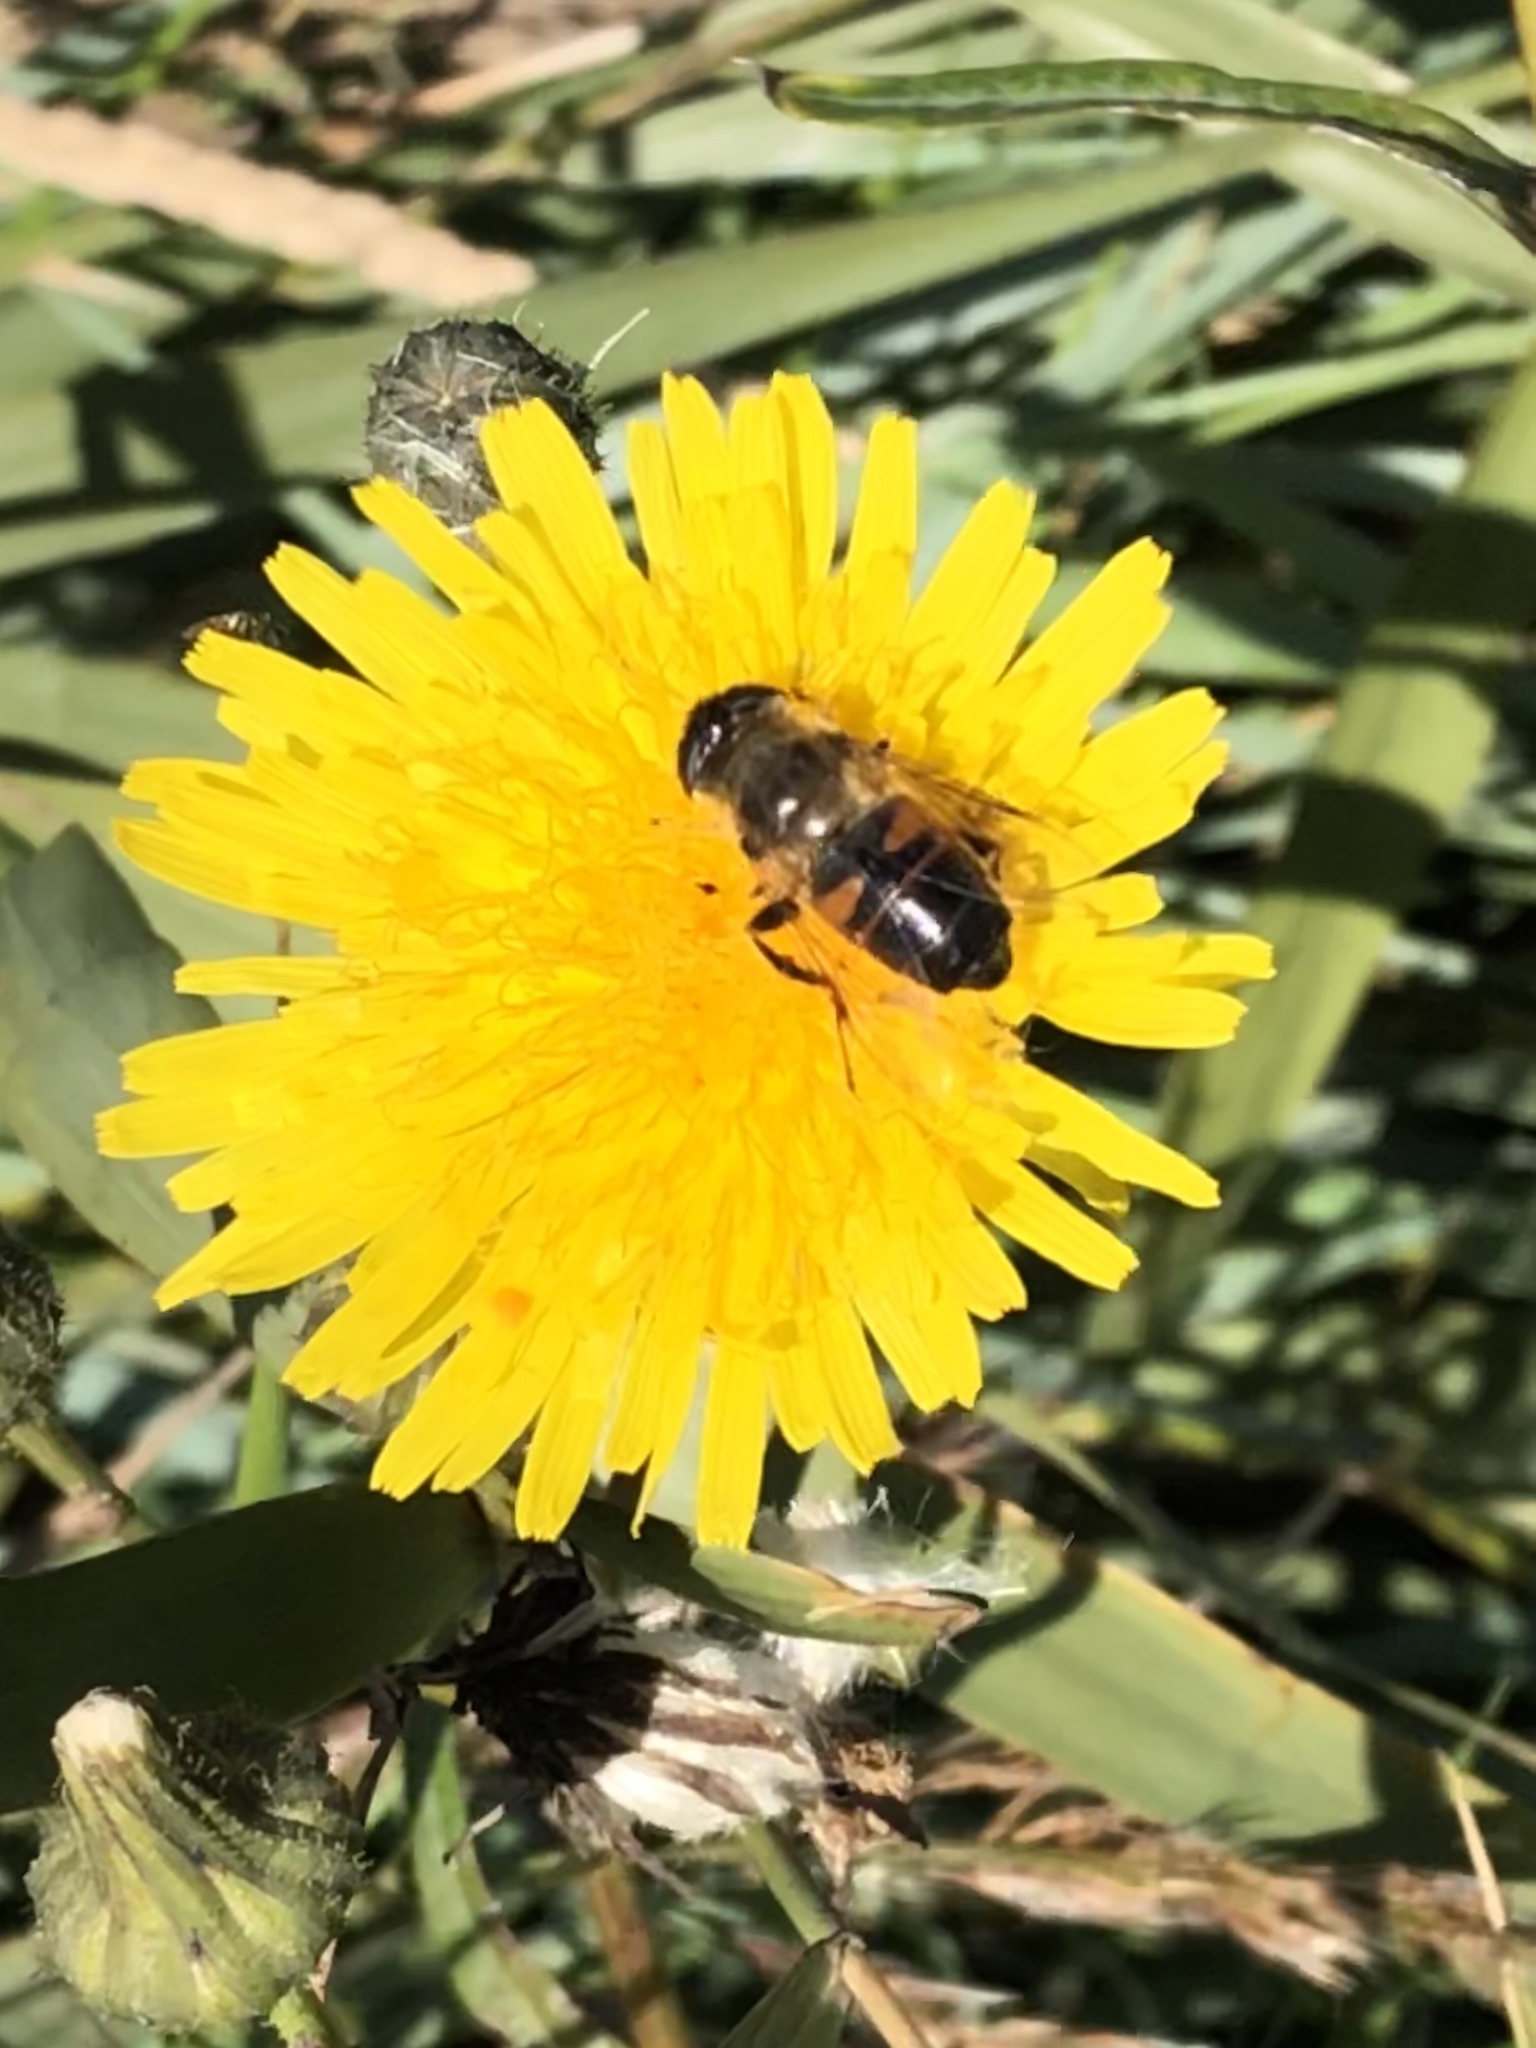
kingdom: Animalia
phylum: Arthropoda
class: Insecta
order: Diptera
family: Syrphidae
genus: Eristalis
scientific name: Eristalis tenax
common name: Drone fly
